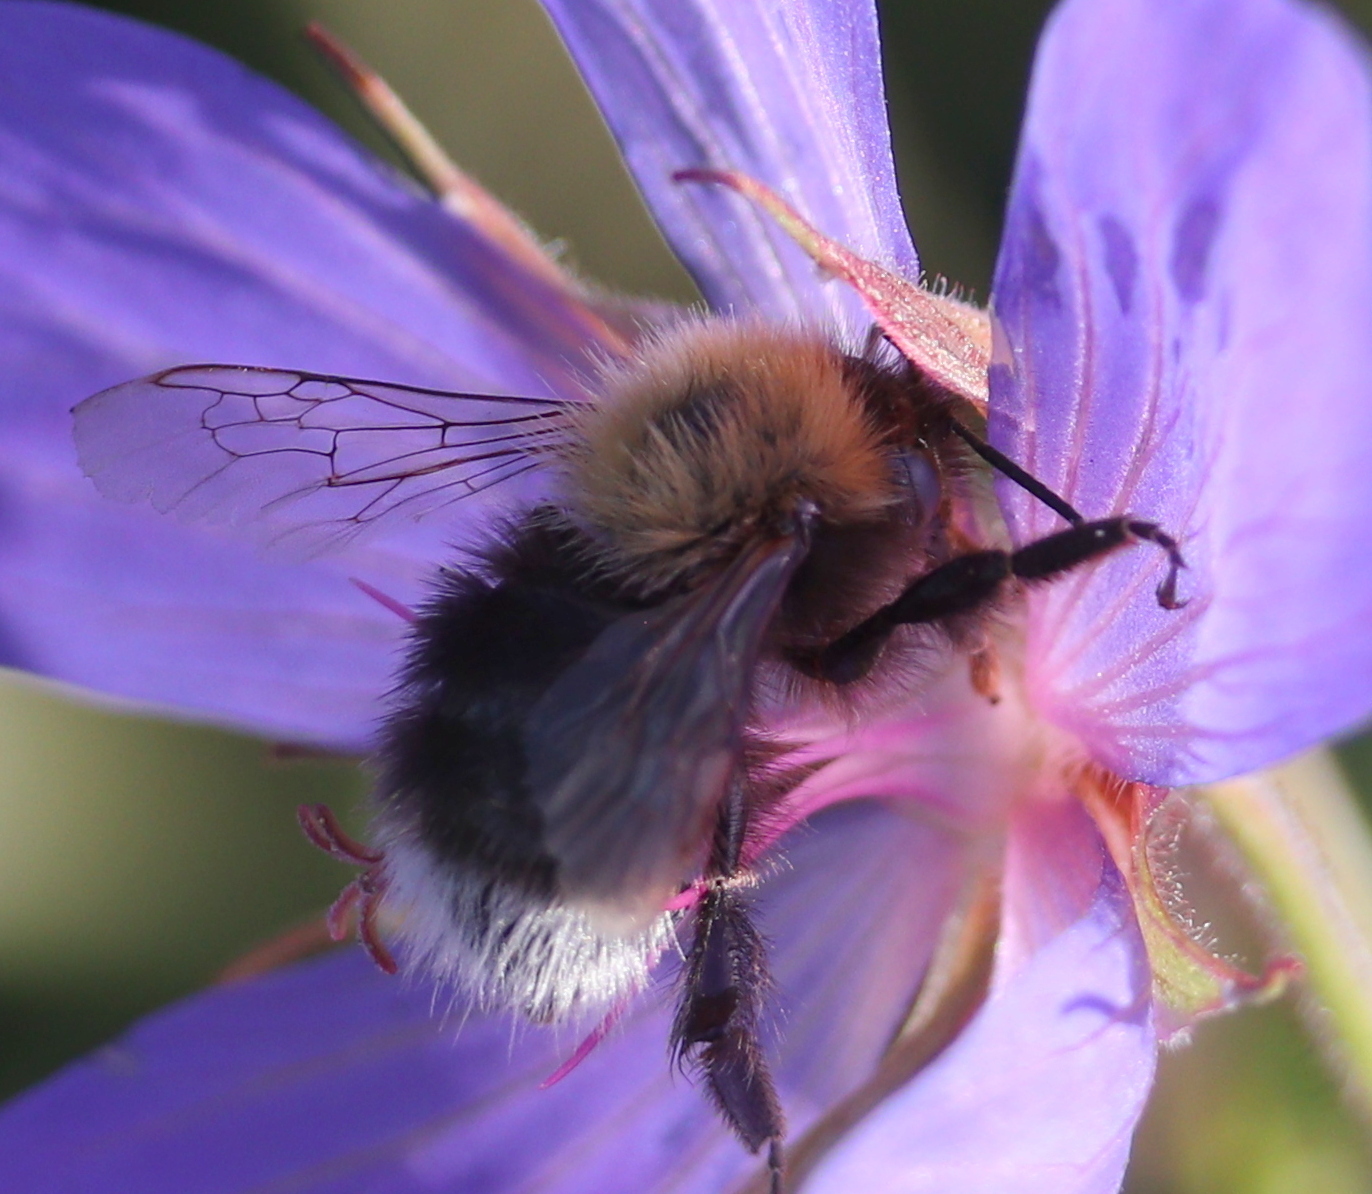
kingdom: Animalia
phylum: Arthropoda
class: Insecta
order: Hymenoptera
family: Apidae
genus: Bombus
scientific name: Bombus hypnorum
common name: New garden bumblebee
